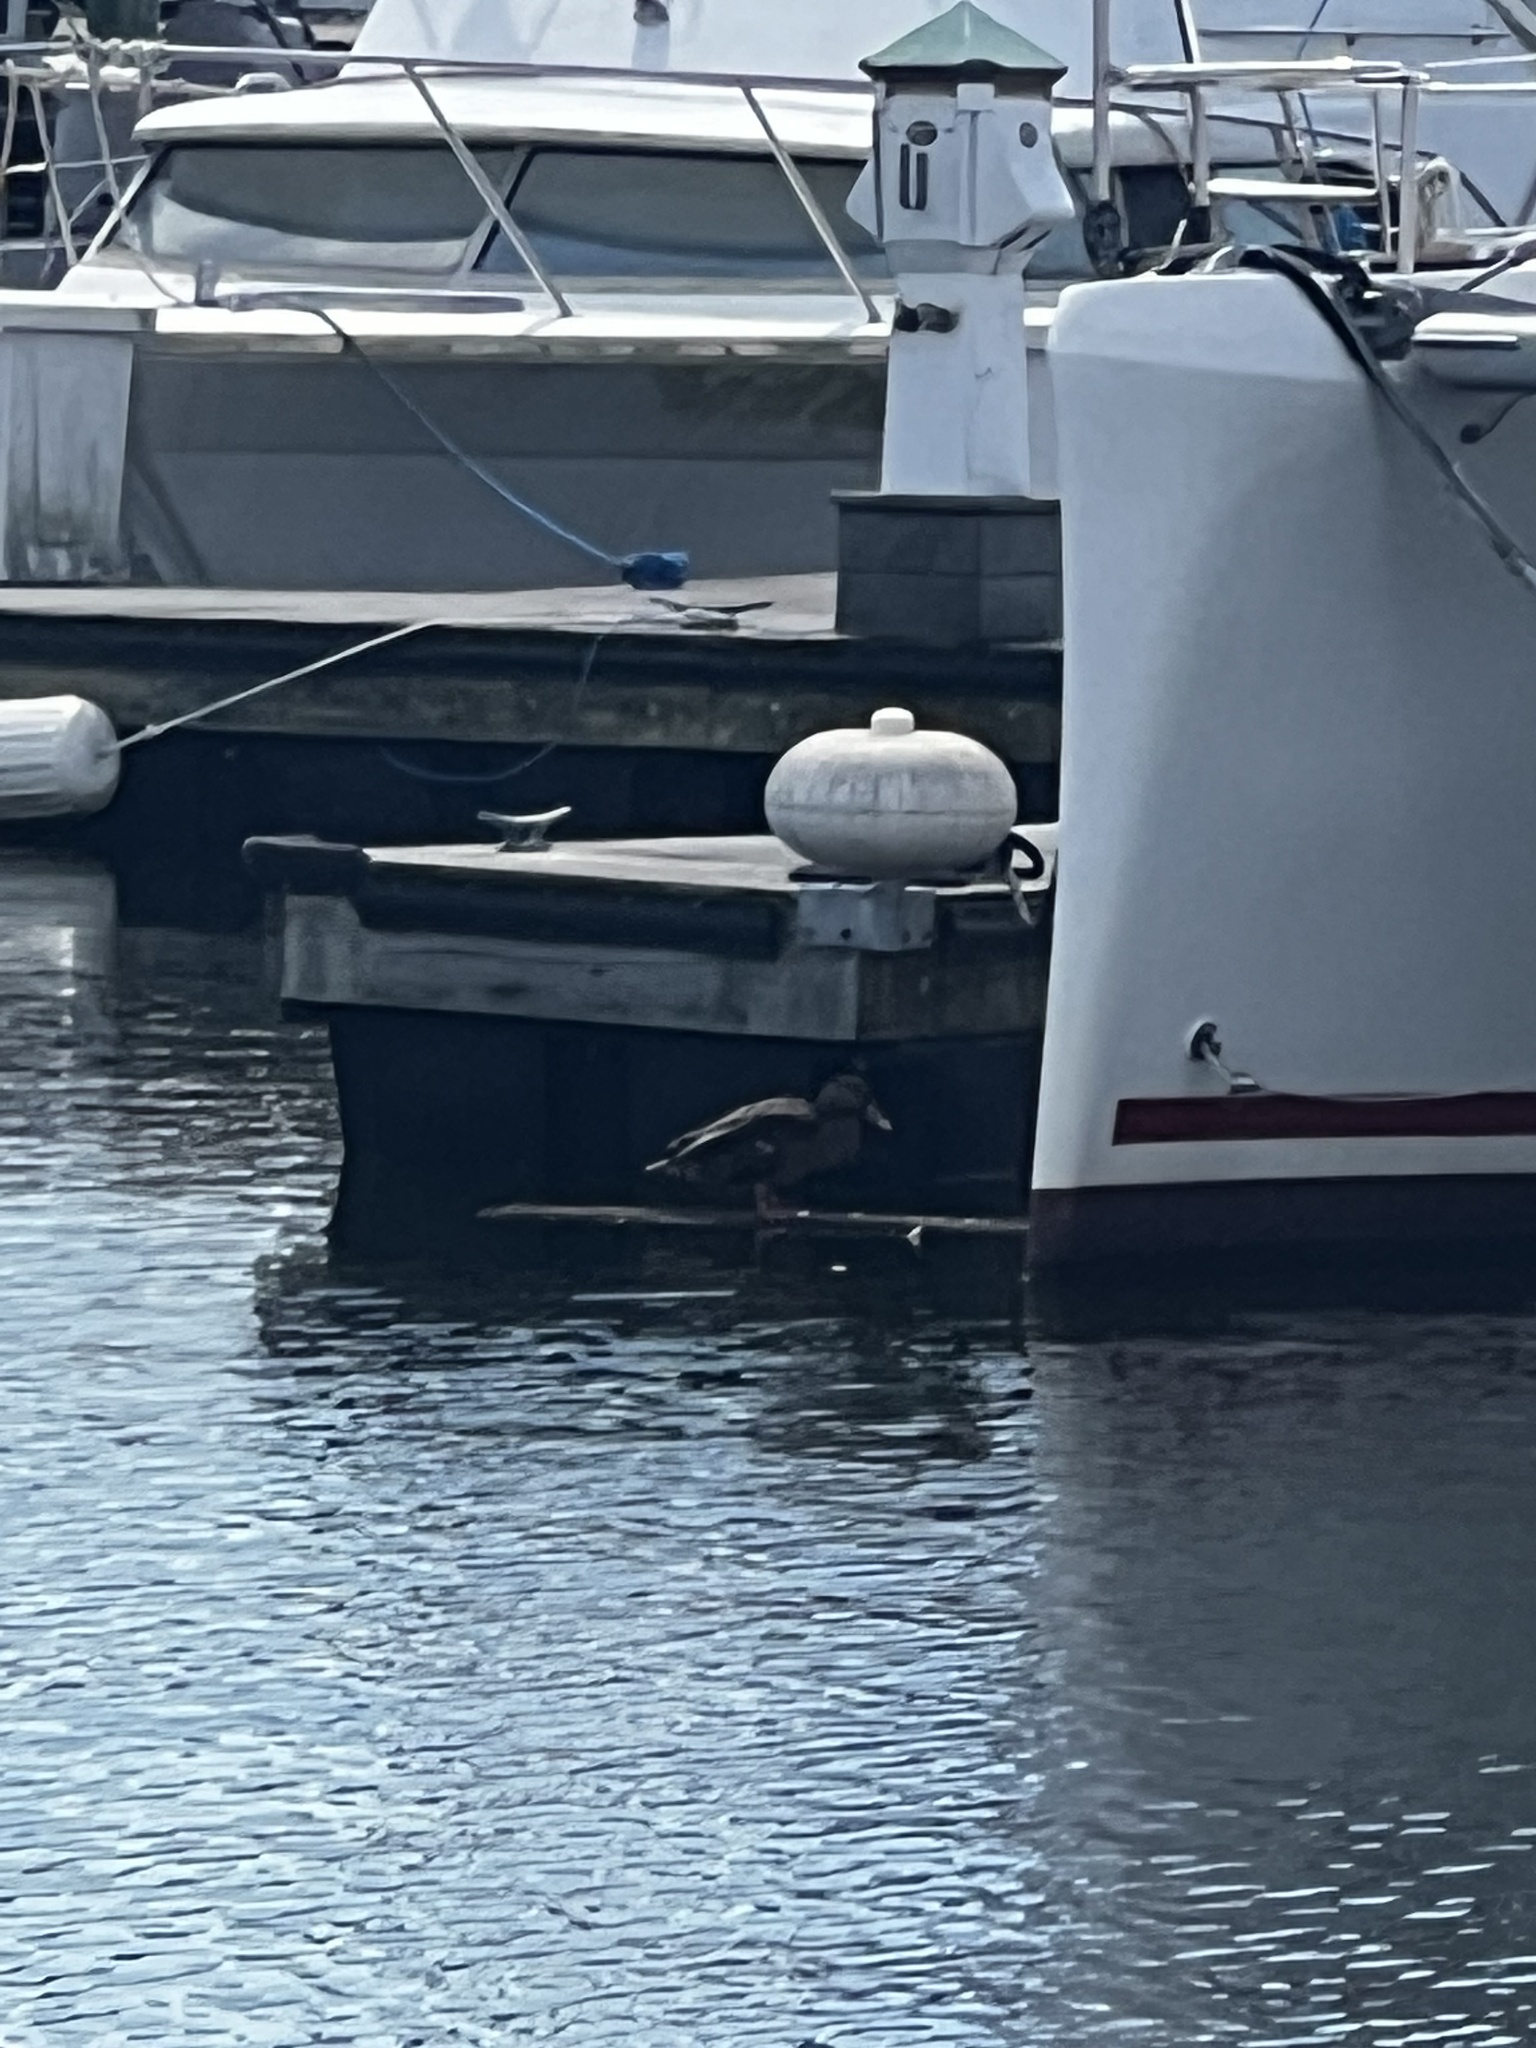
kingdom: Animalia
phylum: Chordata
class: Aves
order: Anseriformes
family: Anatidae
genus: Anas
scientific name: Anas platyrhynchos
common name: Mallard
